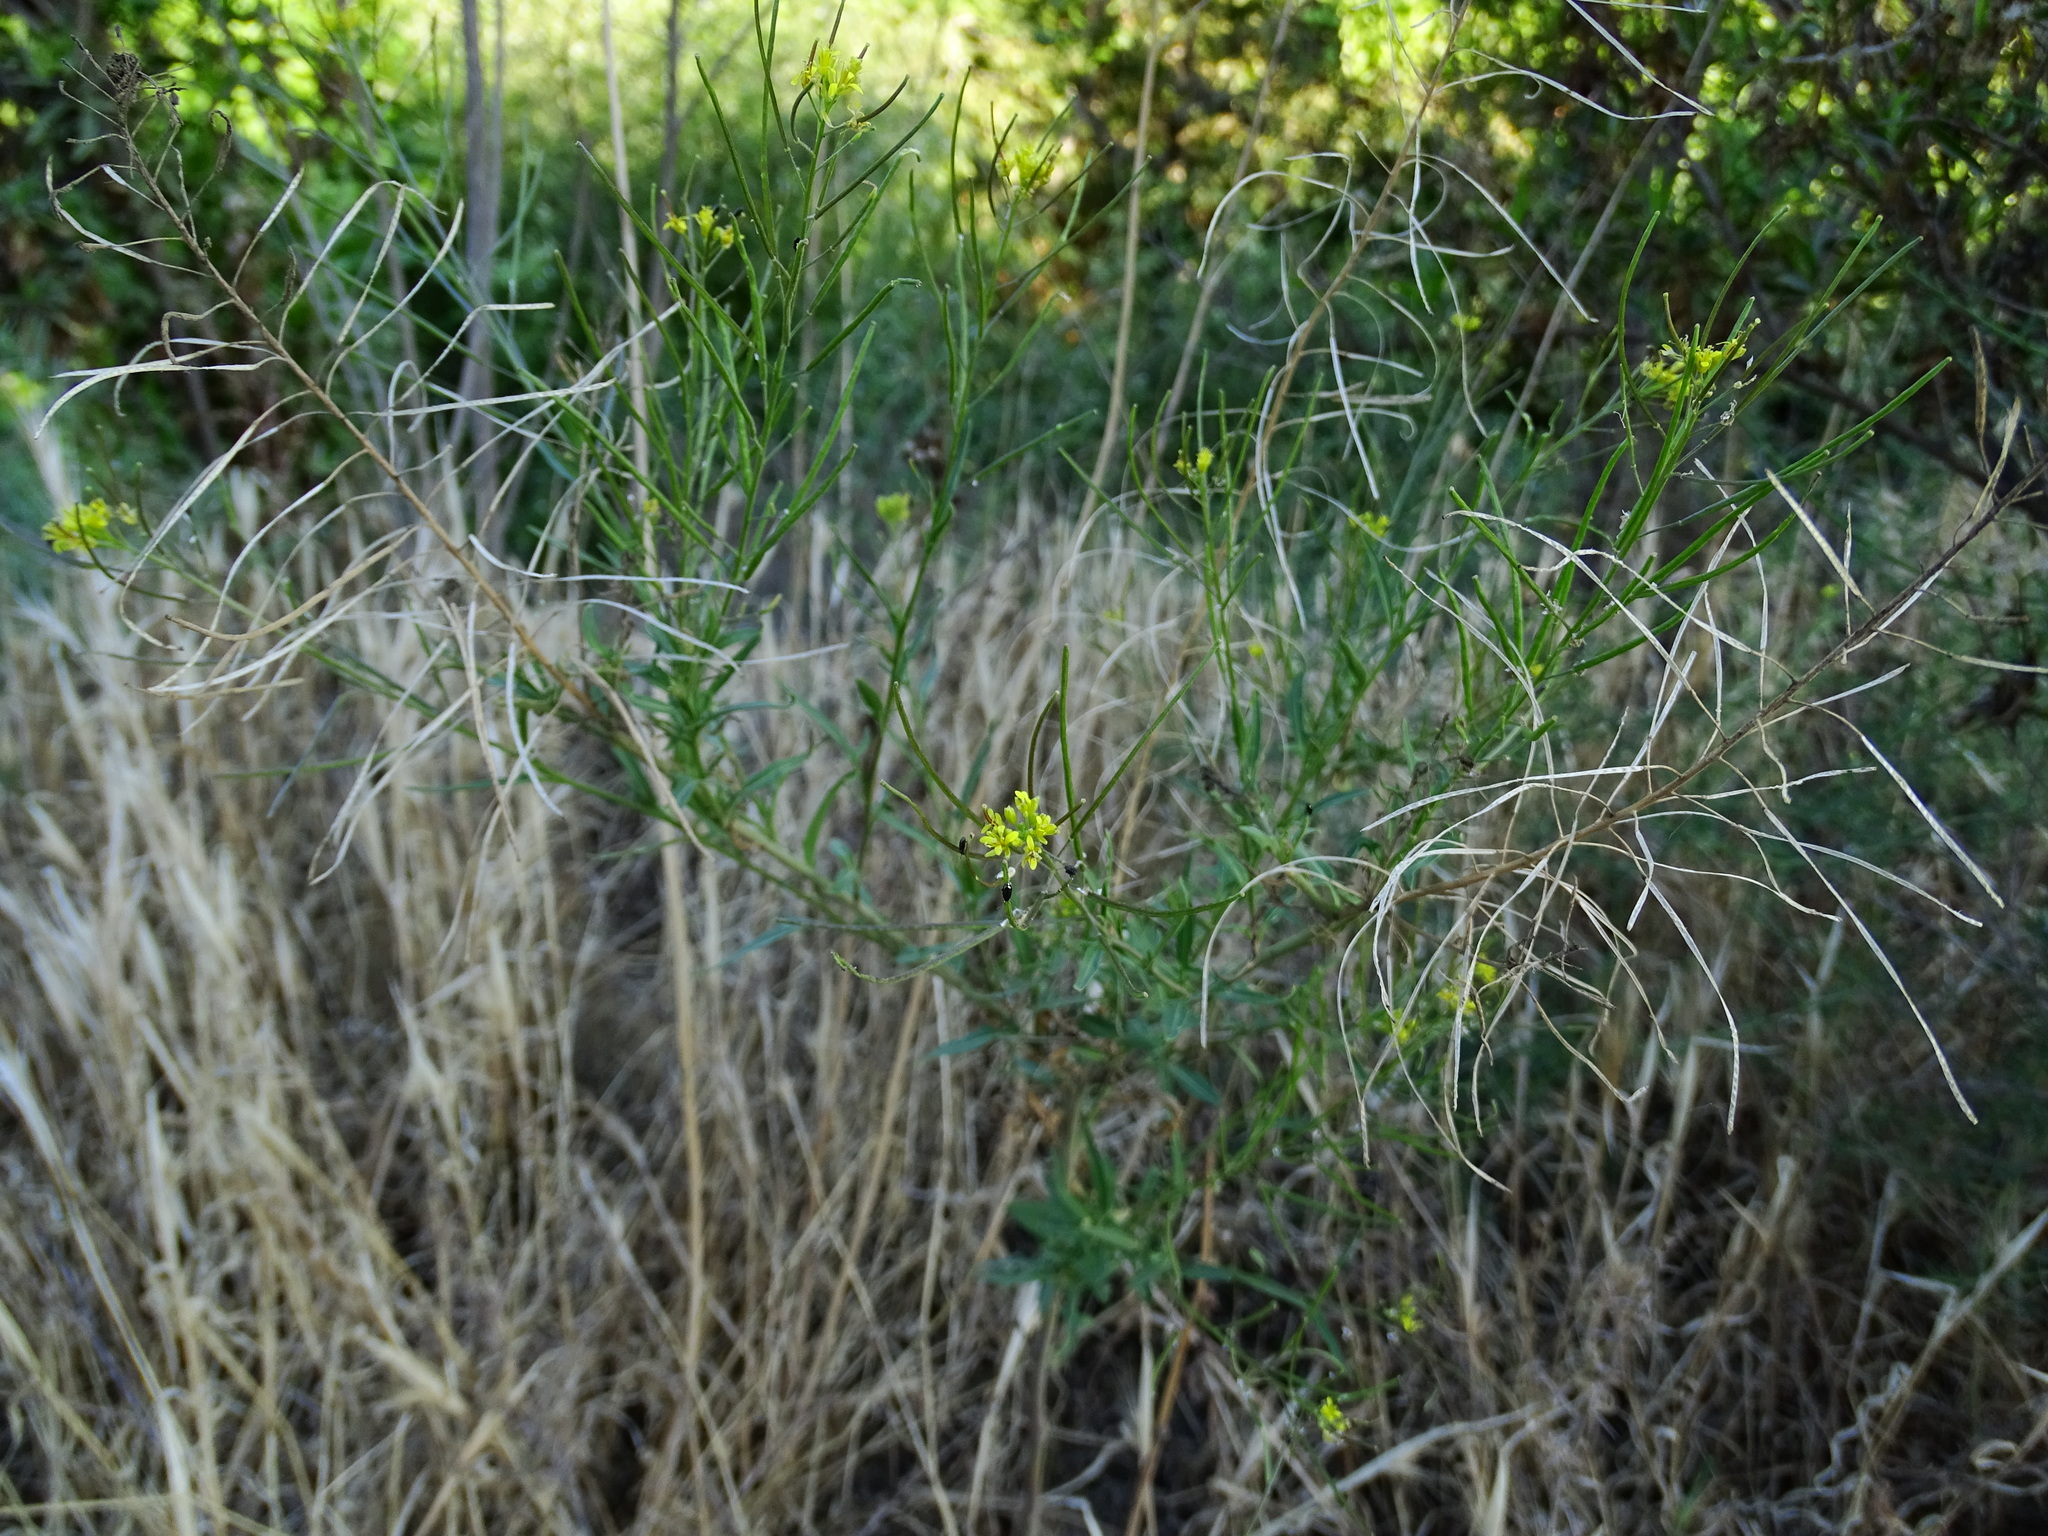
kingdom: Plantae
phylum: Tracheophyta
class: Magnoliopsida
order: Brassicales
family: Brassicaceae
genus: Sisymbrium
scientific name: Sisymbrium irio
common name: London rocket
